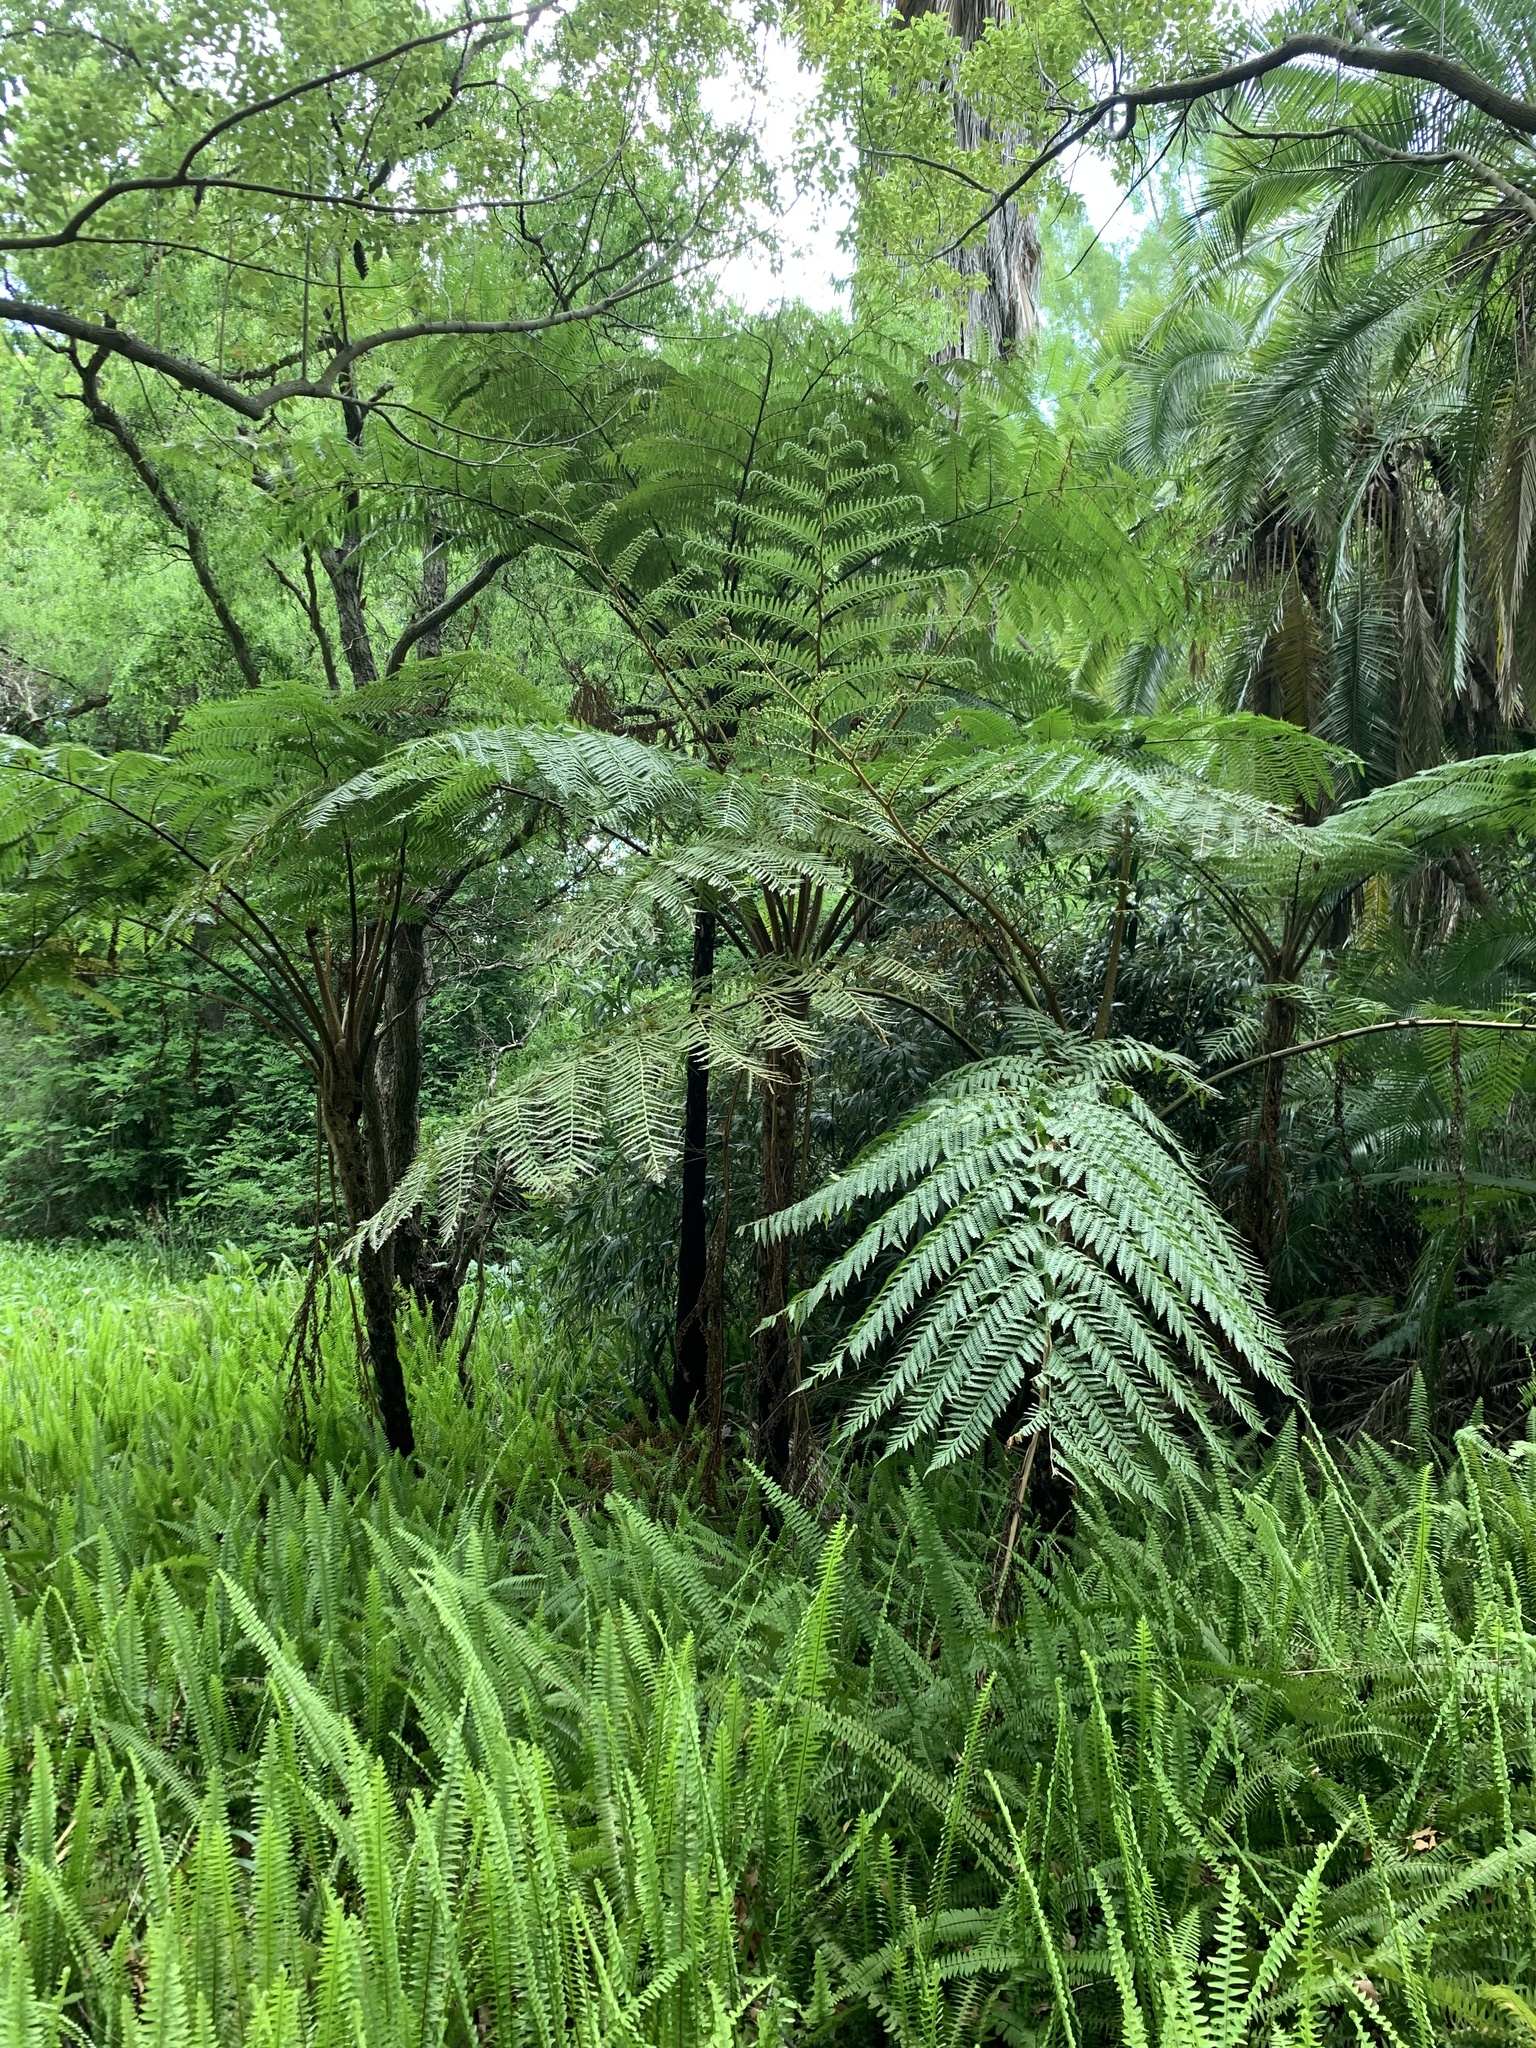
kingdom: Plantae
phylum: Tracheophyta
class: Polypodiopsida
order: Cyatheales
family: Cyatheaceae
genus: Sphaeropteris
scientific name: Sphaeropteris cooperi
